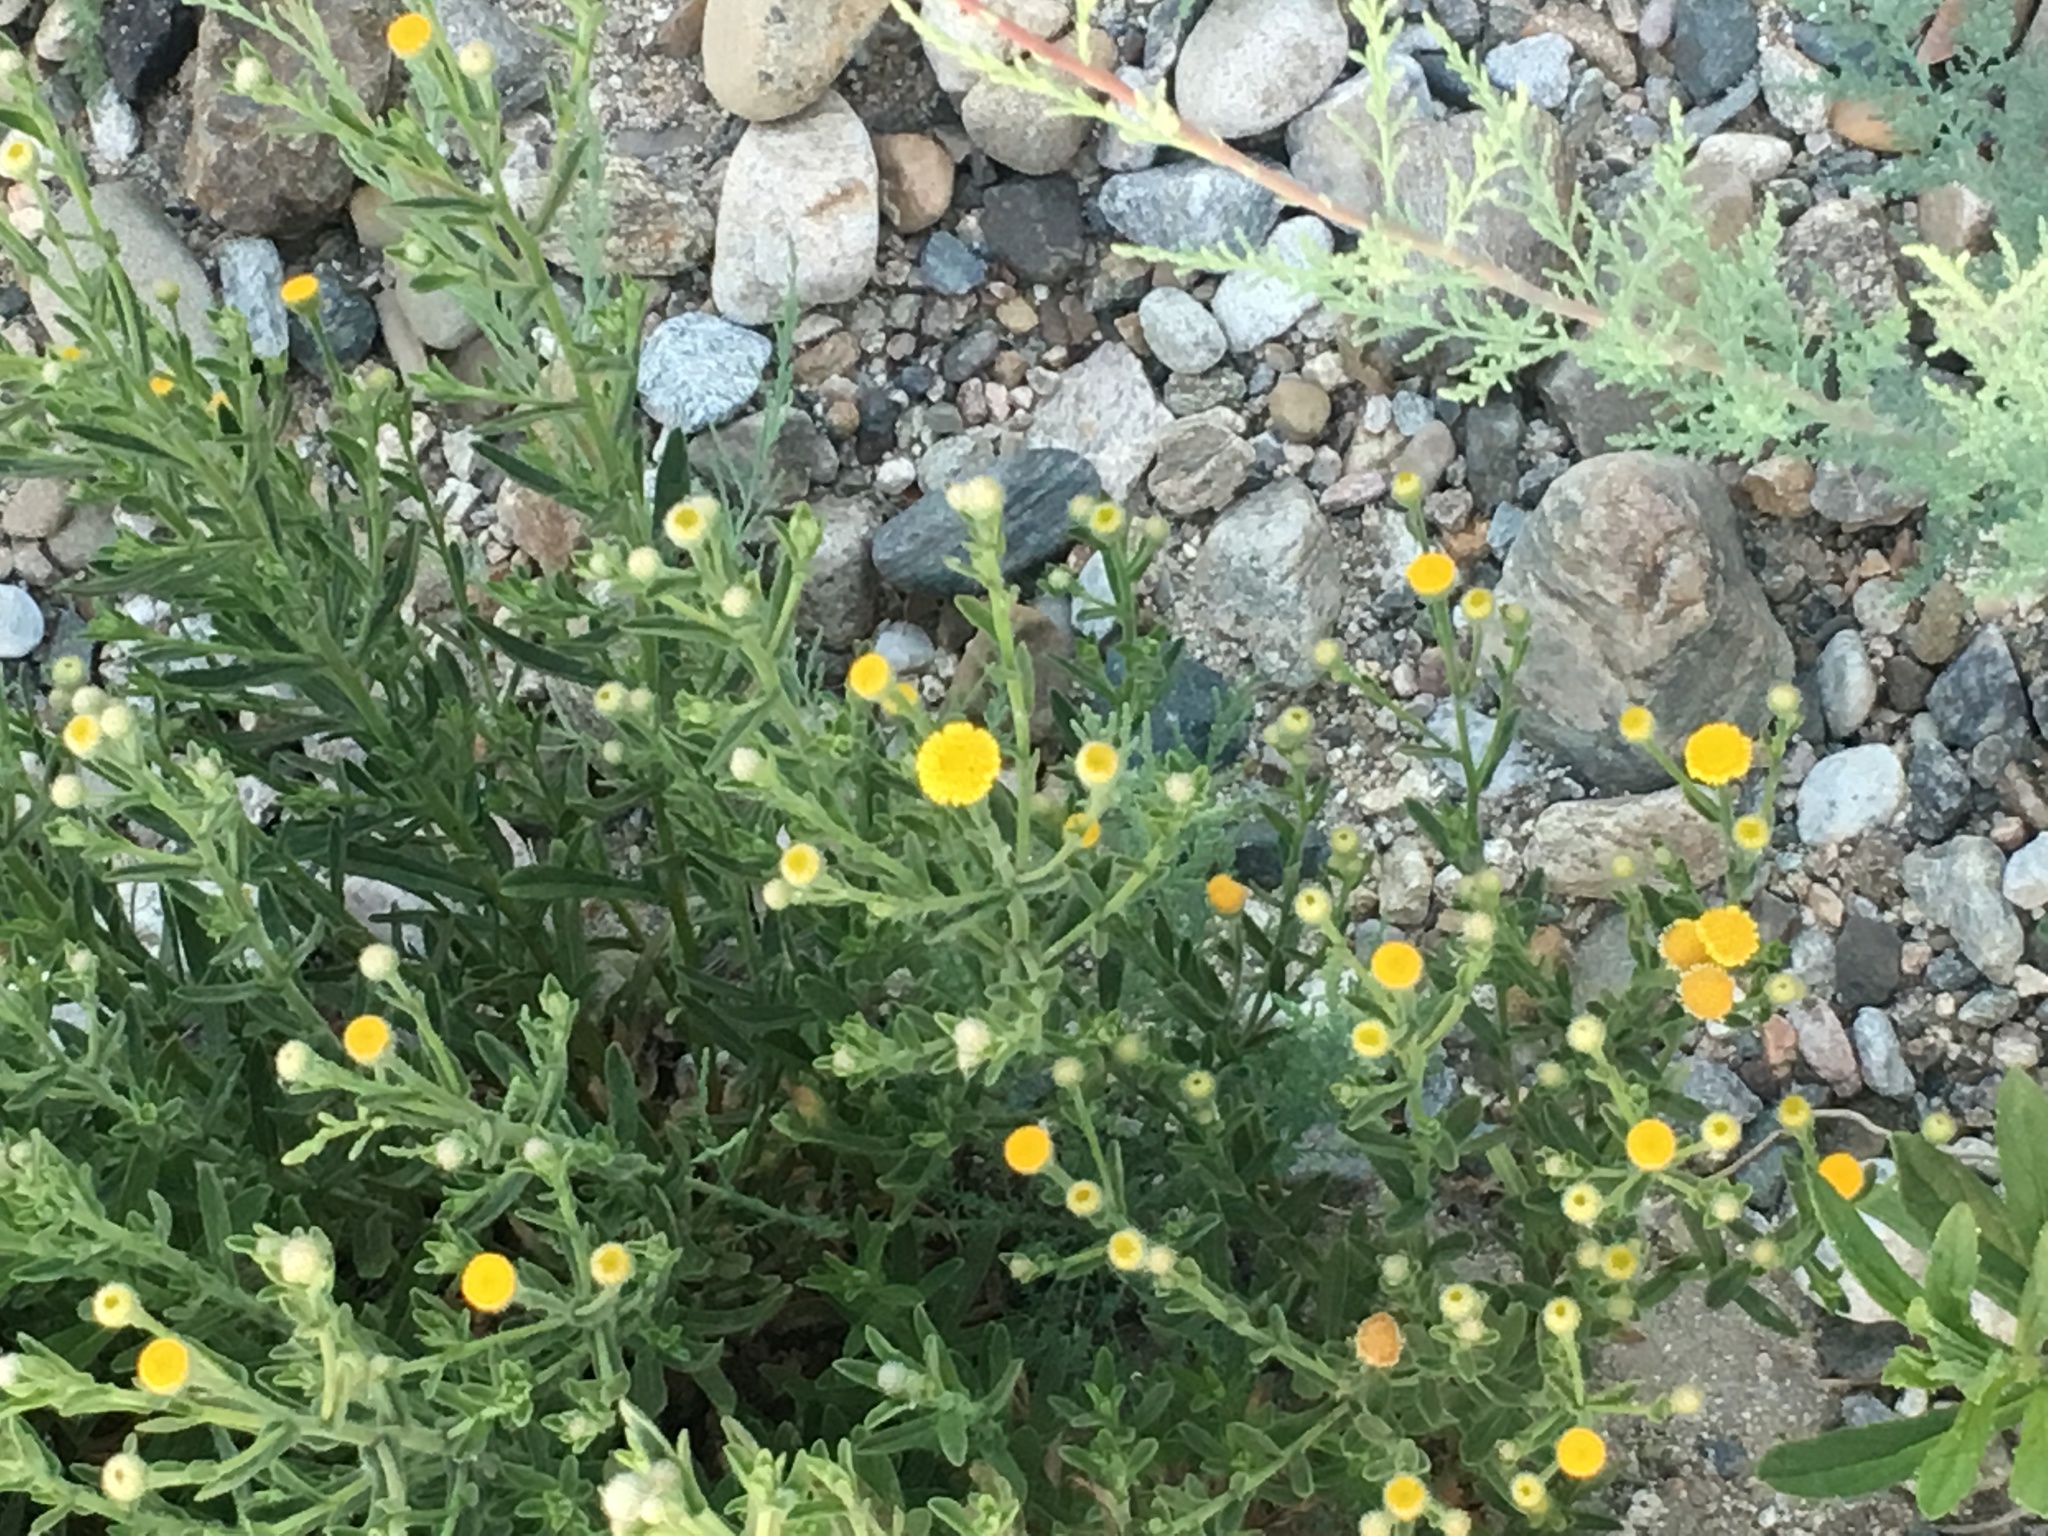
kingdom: Plantae
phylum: Tracheophyta
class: Magnoliopsida
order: Asterales
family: Asteraceae
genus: Pulicaria
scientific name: Pulicaria paludosa
